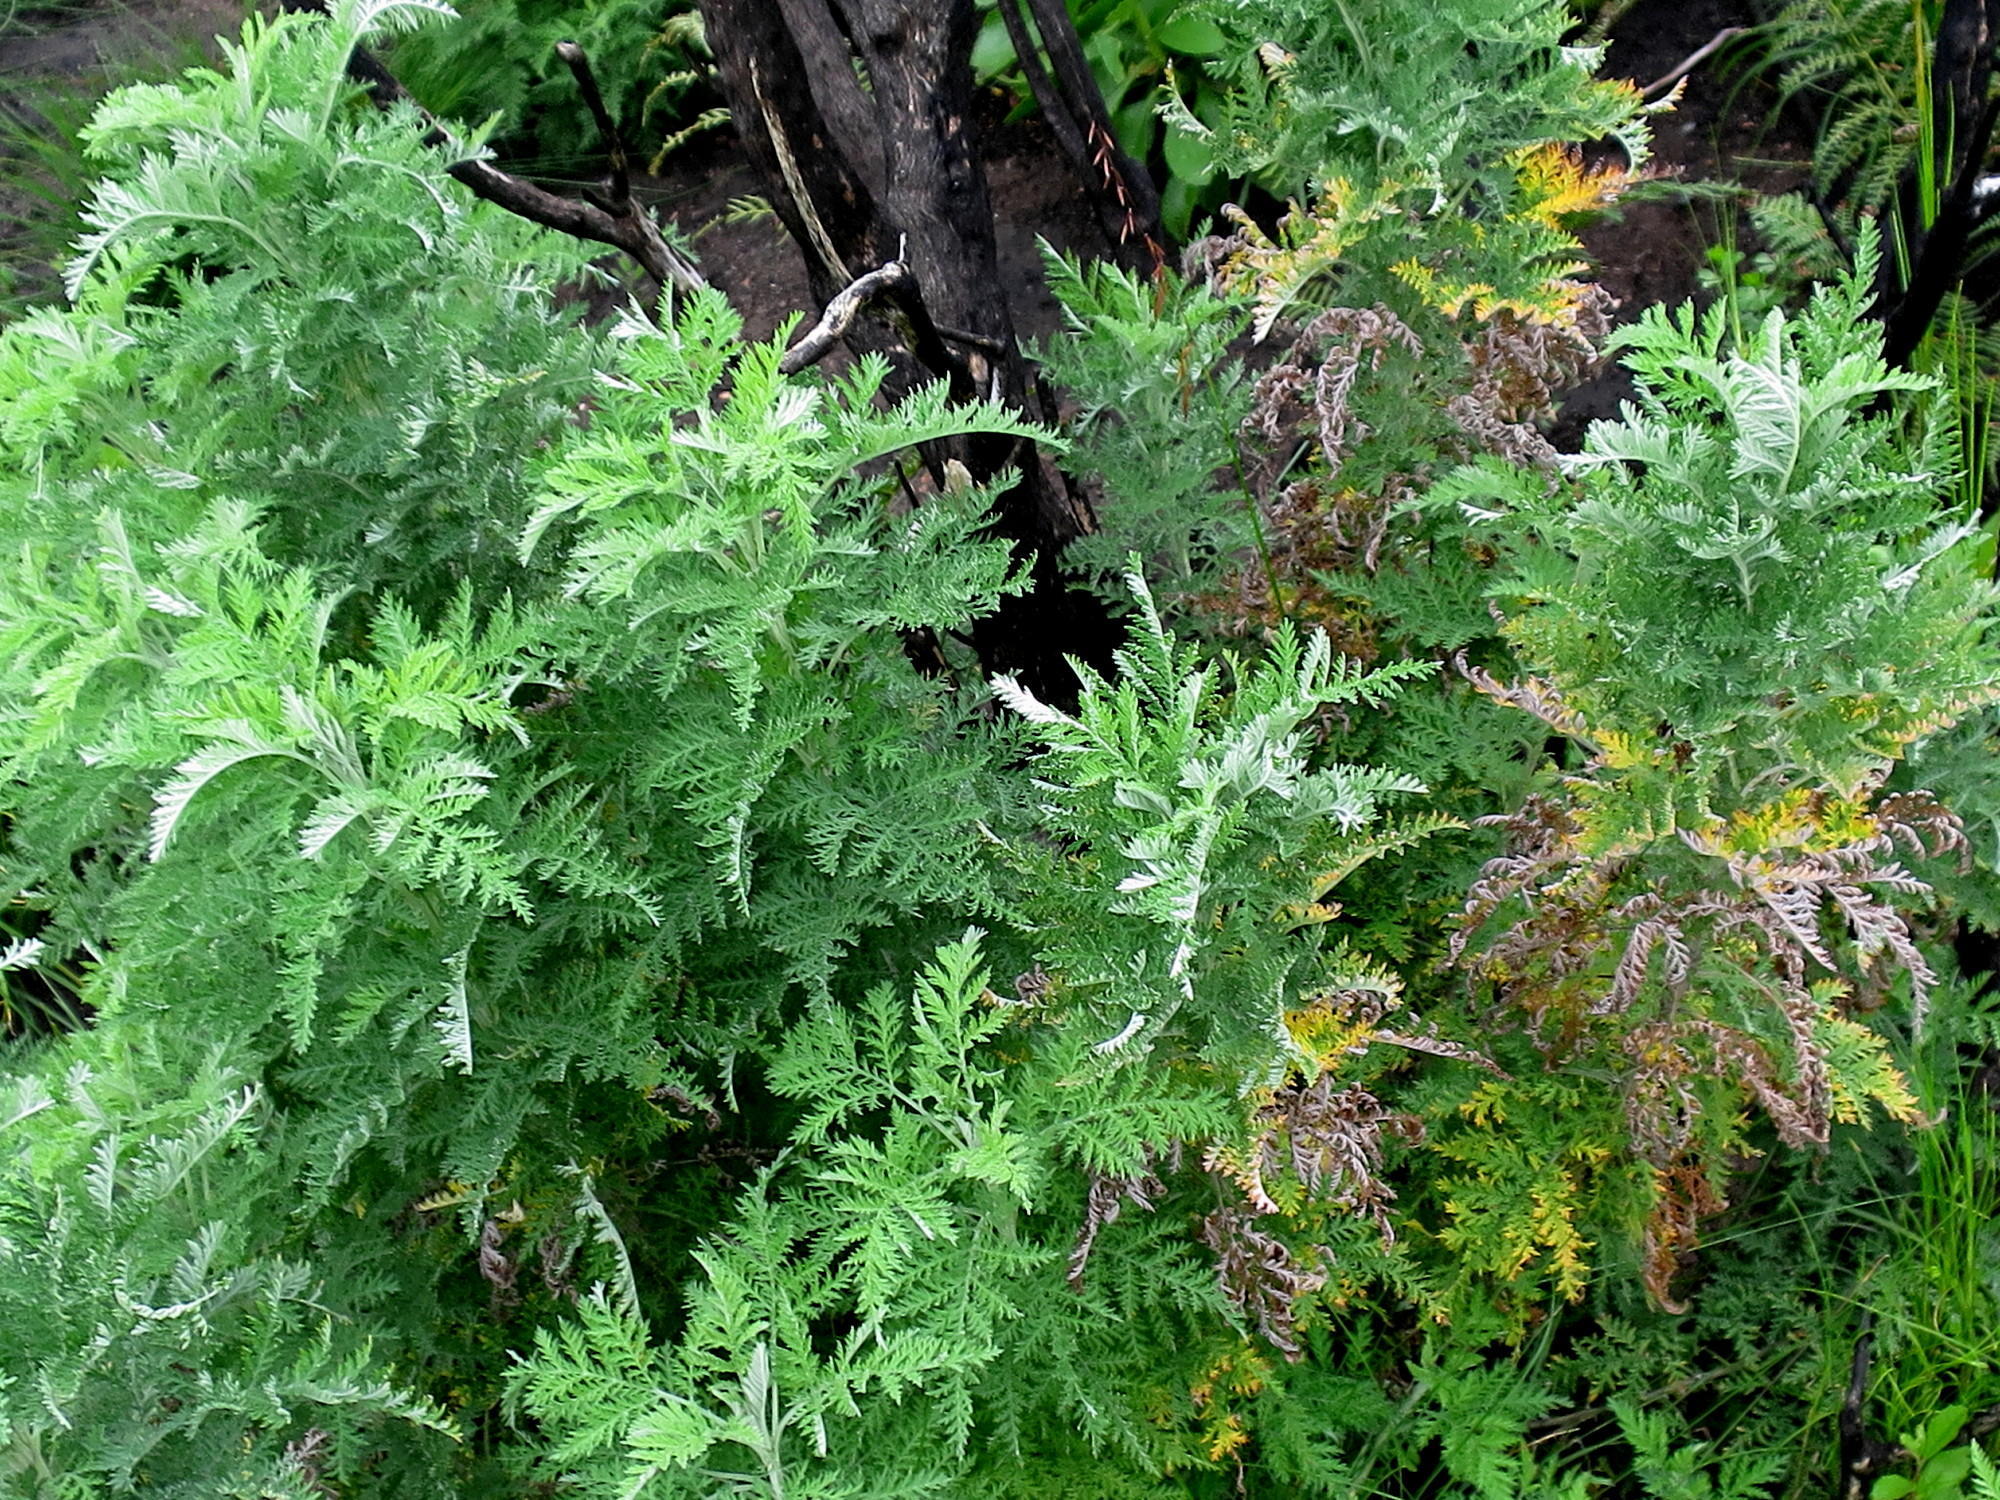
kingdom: Plantae
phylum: Tracheophyta
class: Magnoliopsida
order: Asterales
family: Asteraceae
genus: Artemisia
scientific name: Artemisia afra
